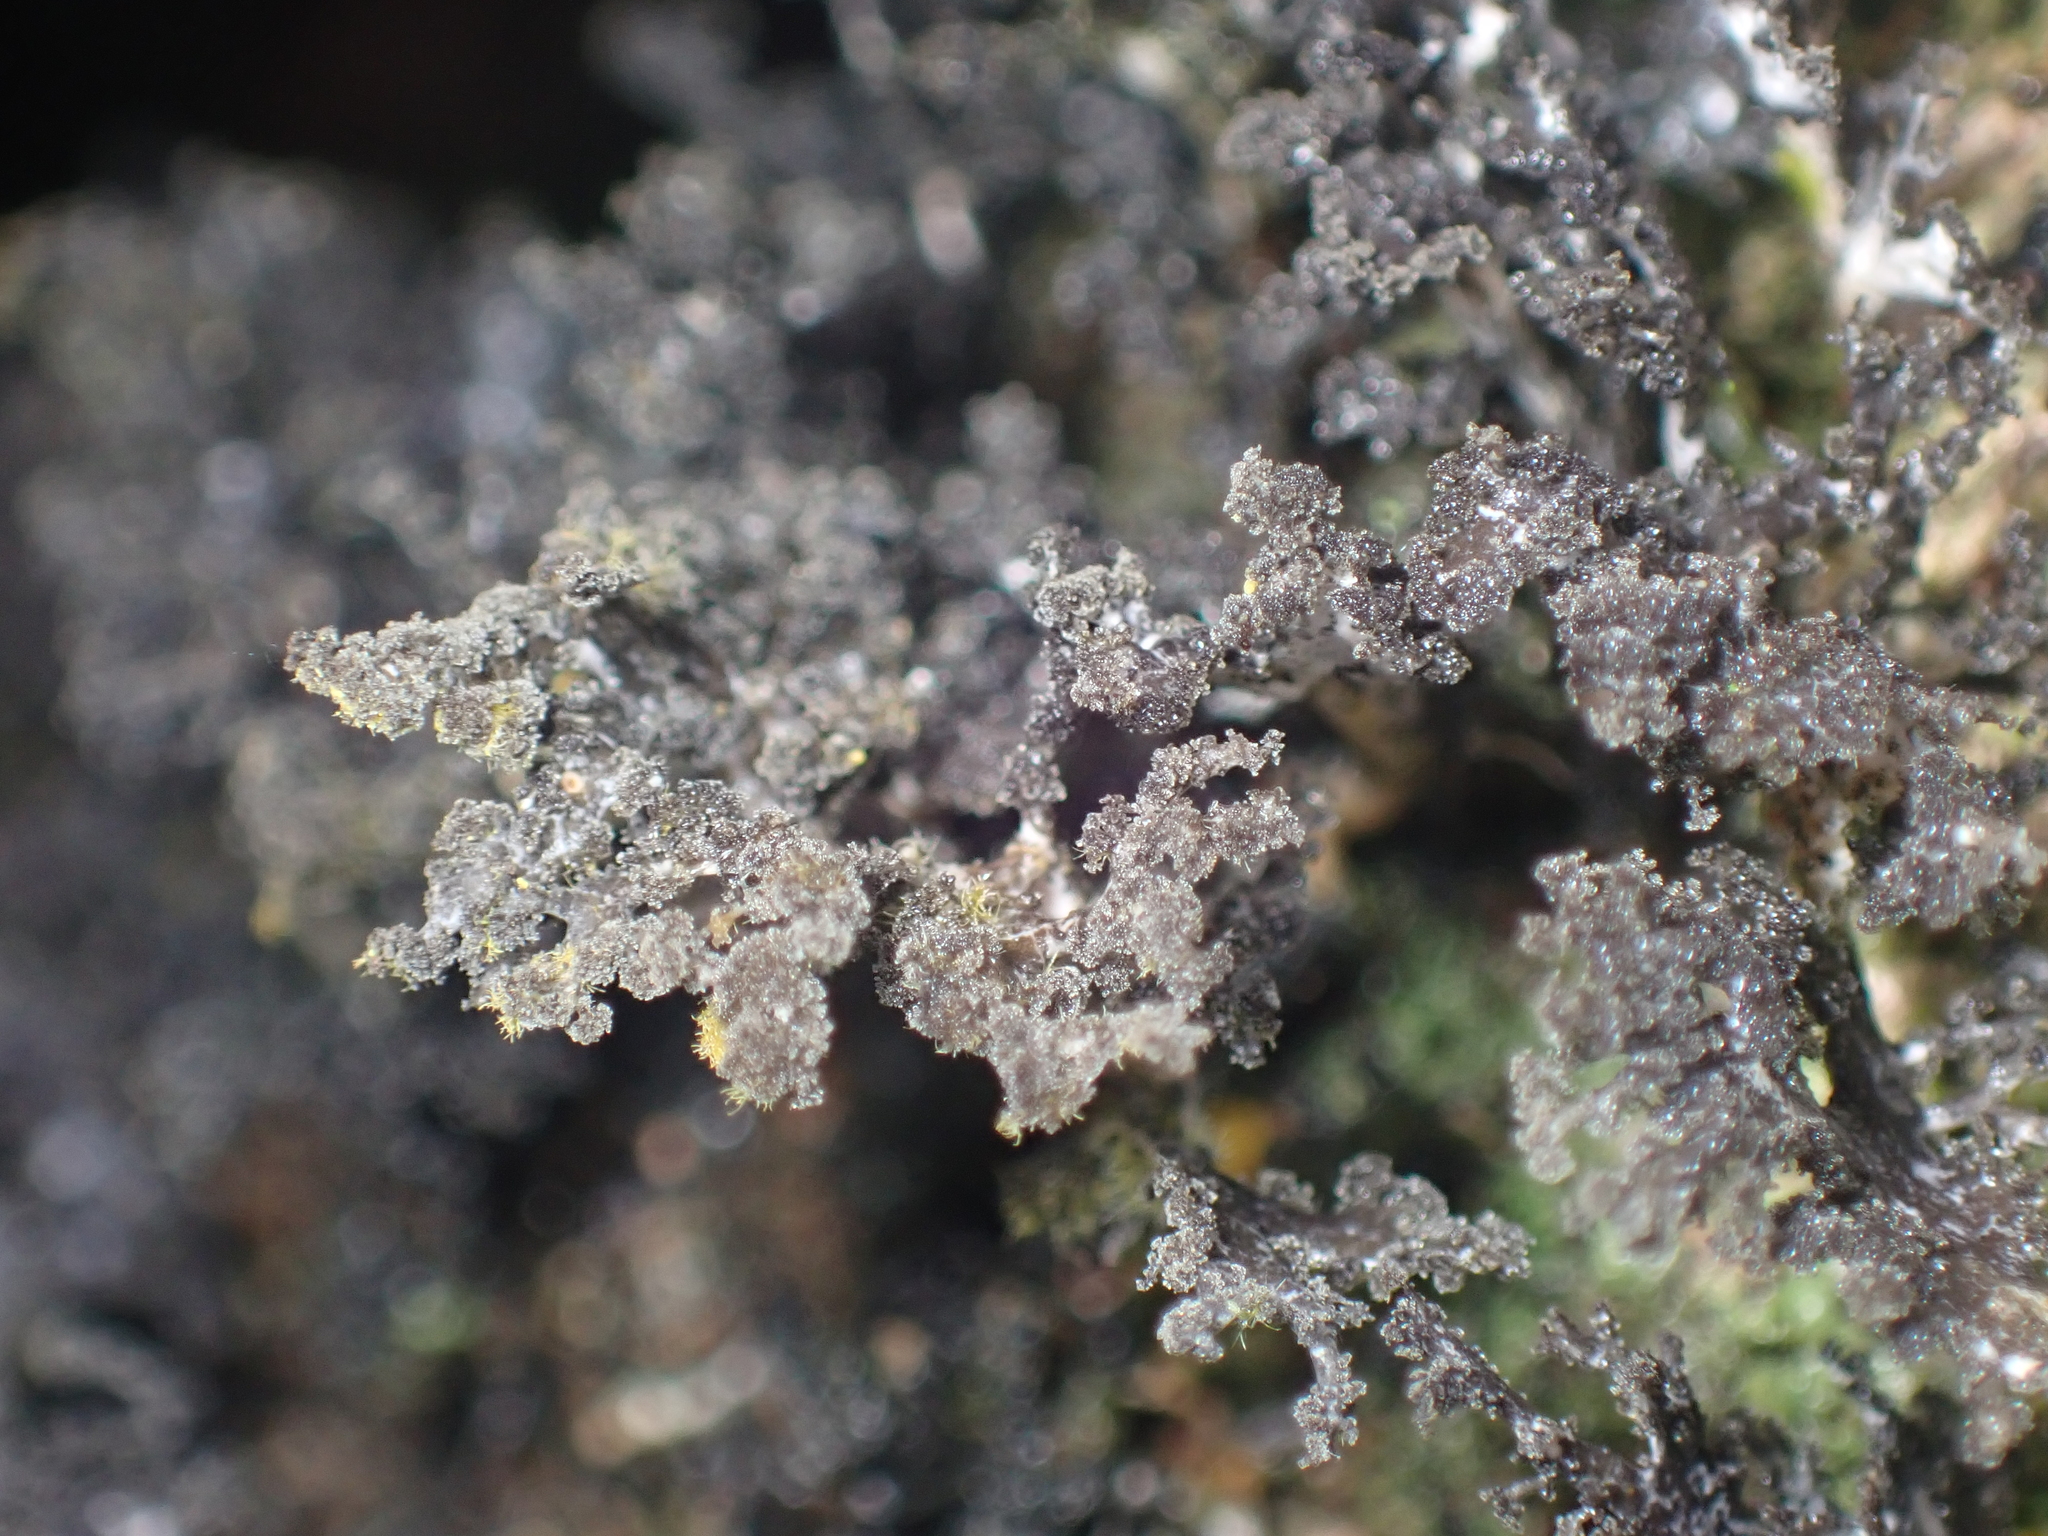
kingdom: Fungi
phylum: Ascomycota
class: Lecanoromycetes
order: Peltigerales
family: Lobariaceae
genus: Sticta
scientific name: Sticta dendroides
